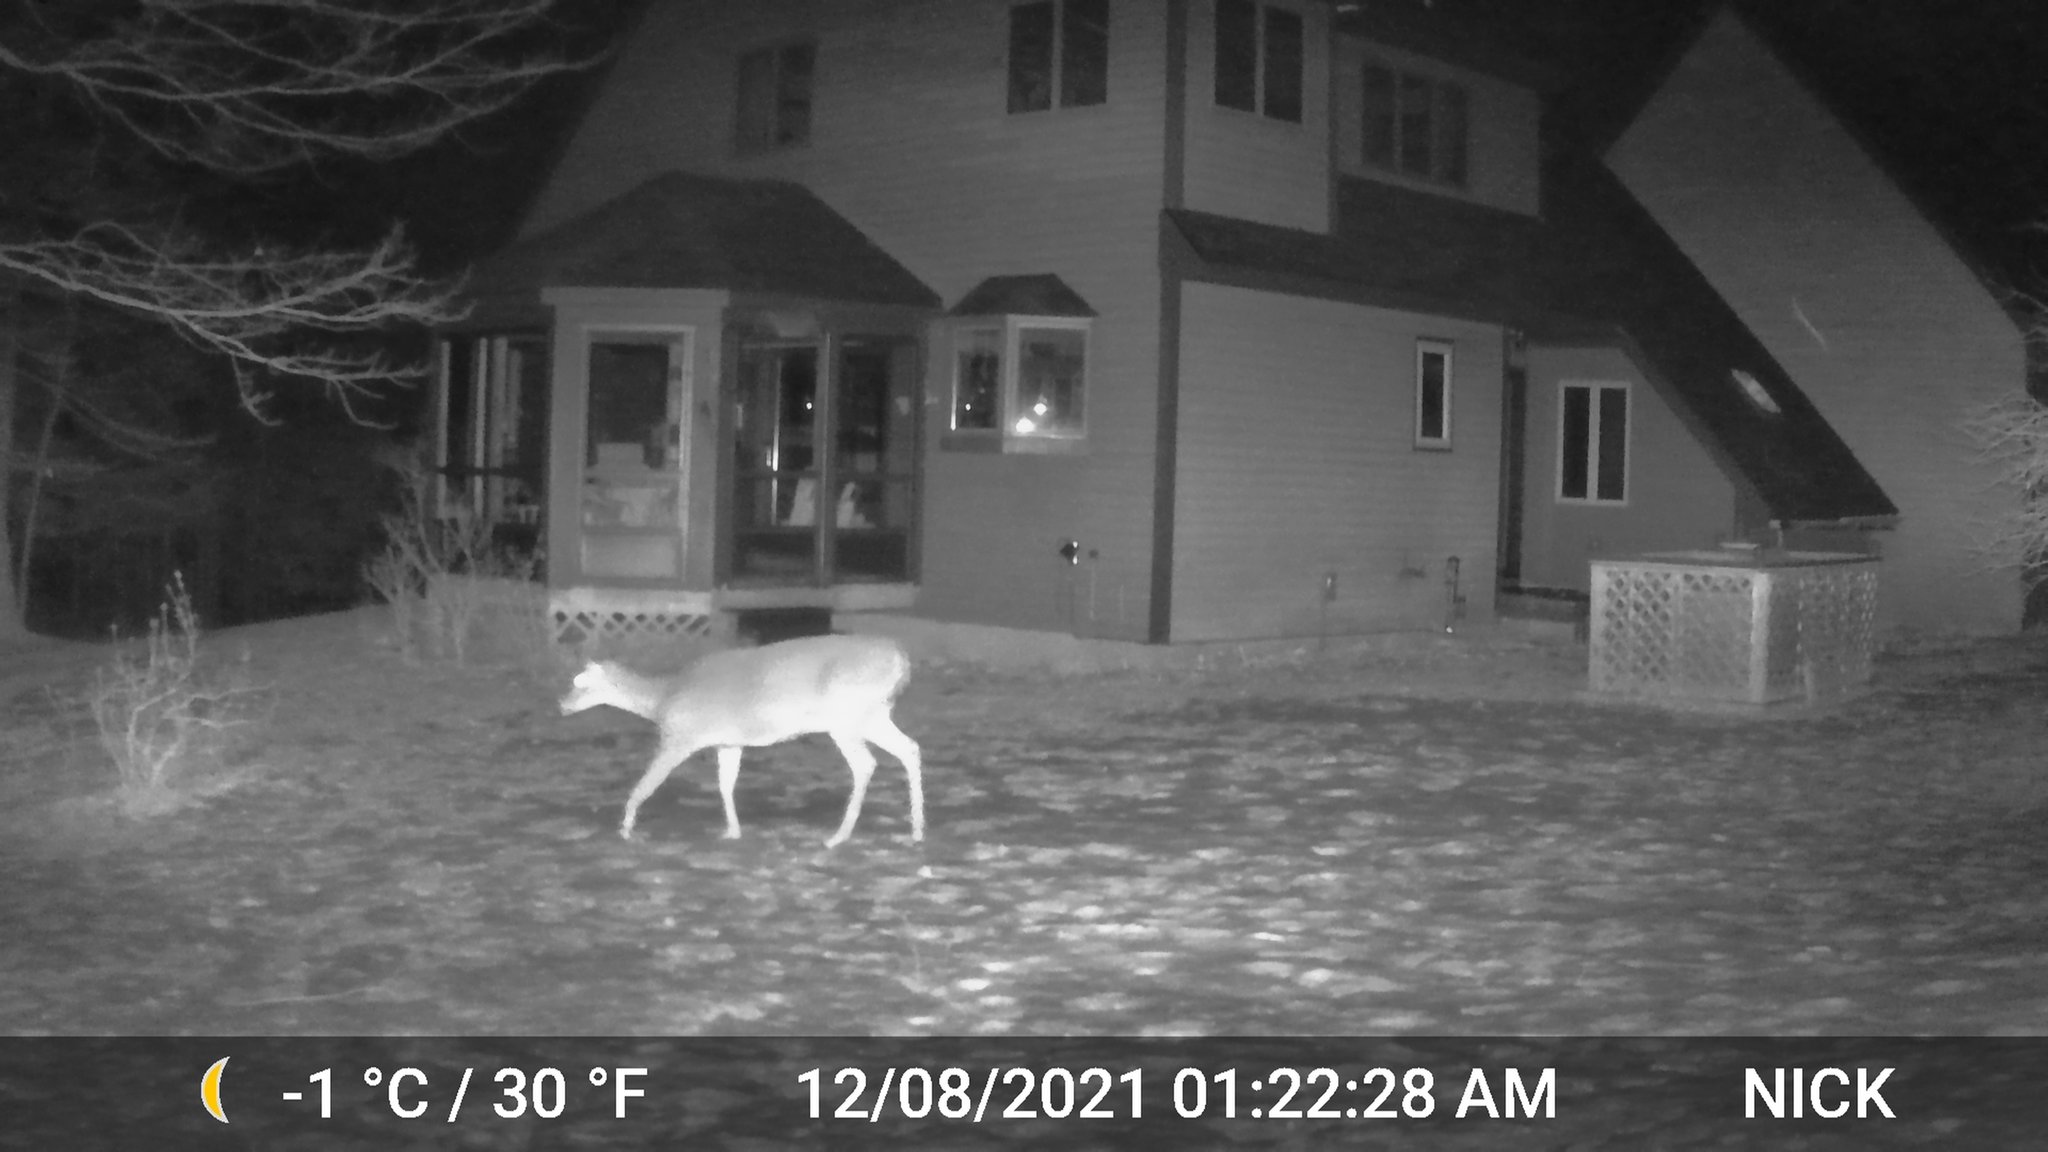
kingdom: Animalia
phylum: Chordata
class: Mammalia
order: Artiodactyla
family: Cervidae
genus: Odocoileus
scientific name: Odocoileus virginianus
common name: White-tailed deer
